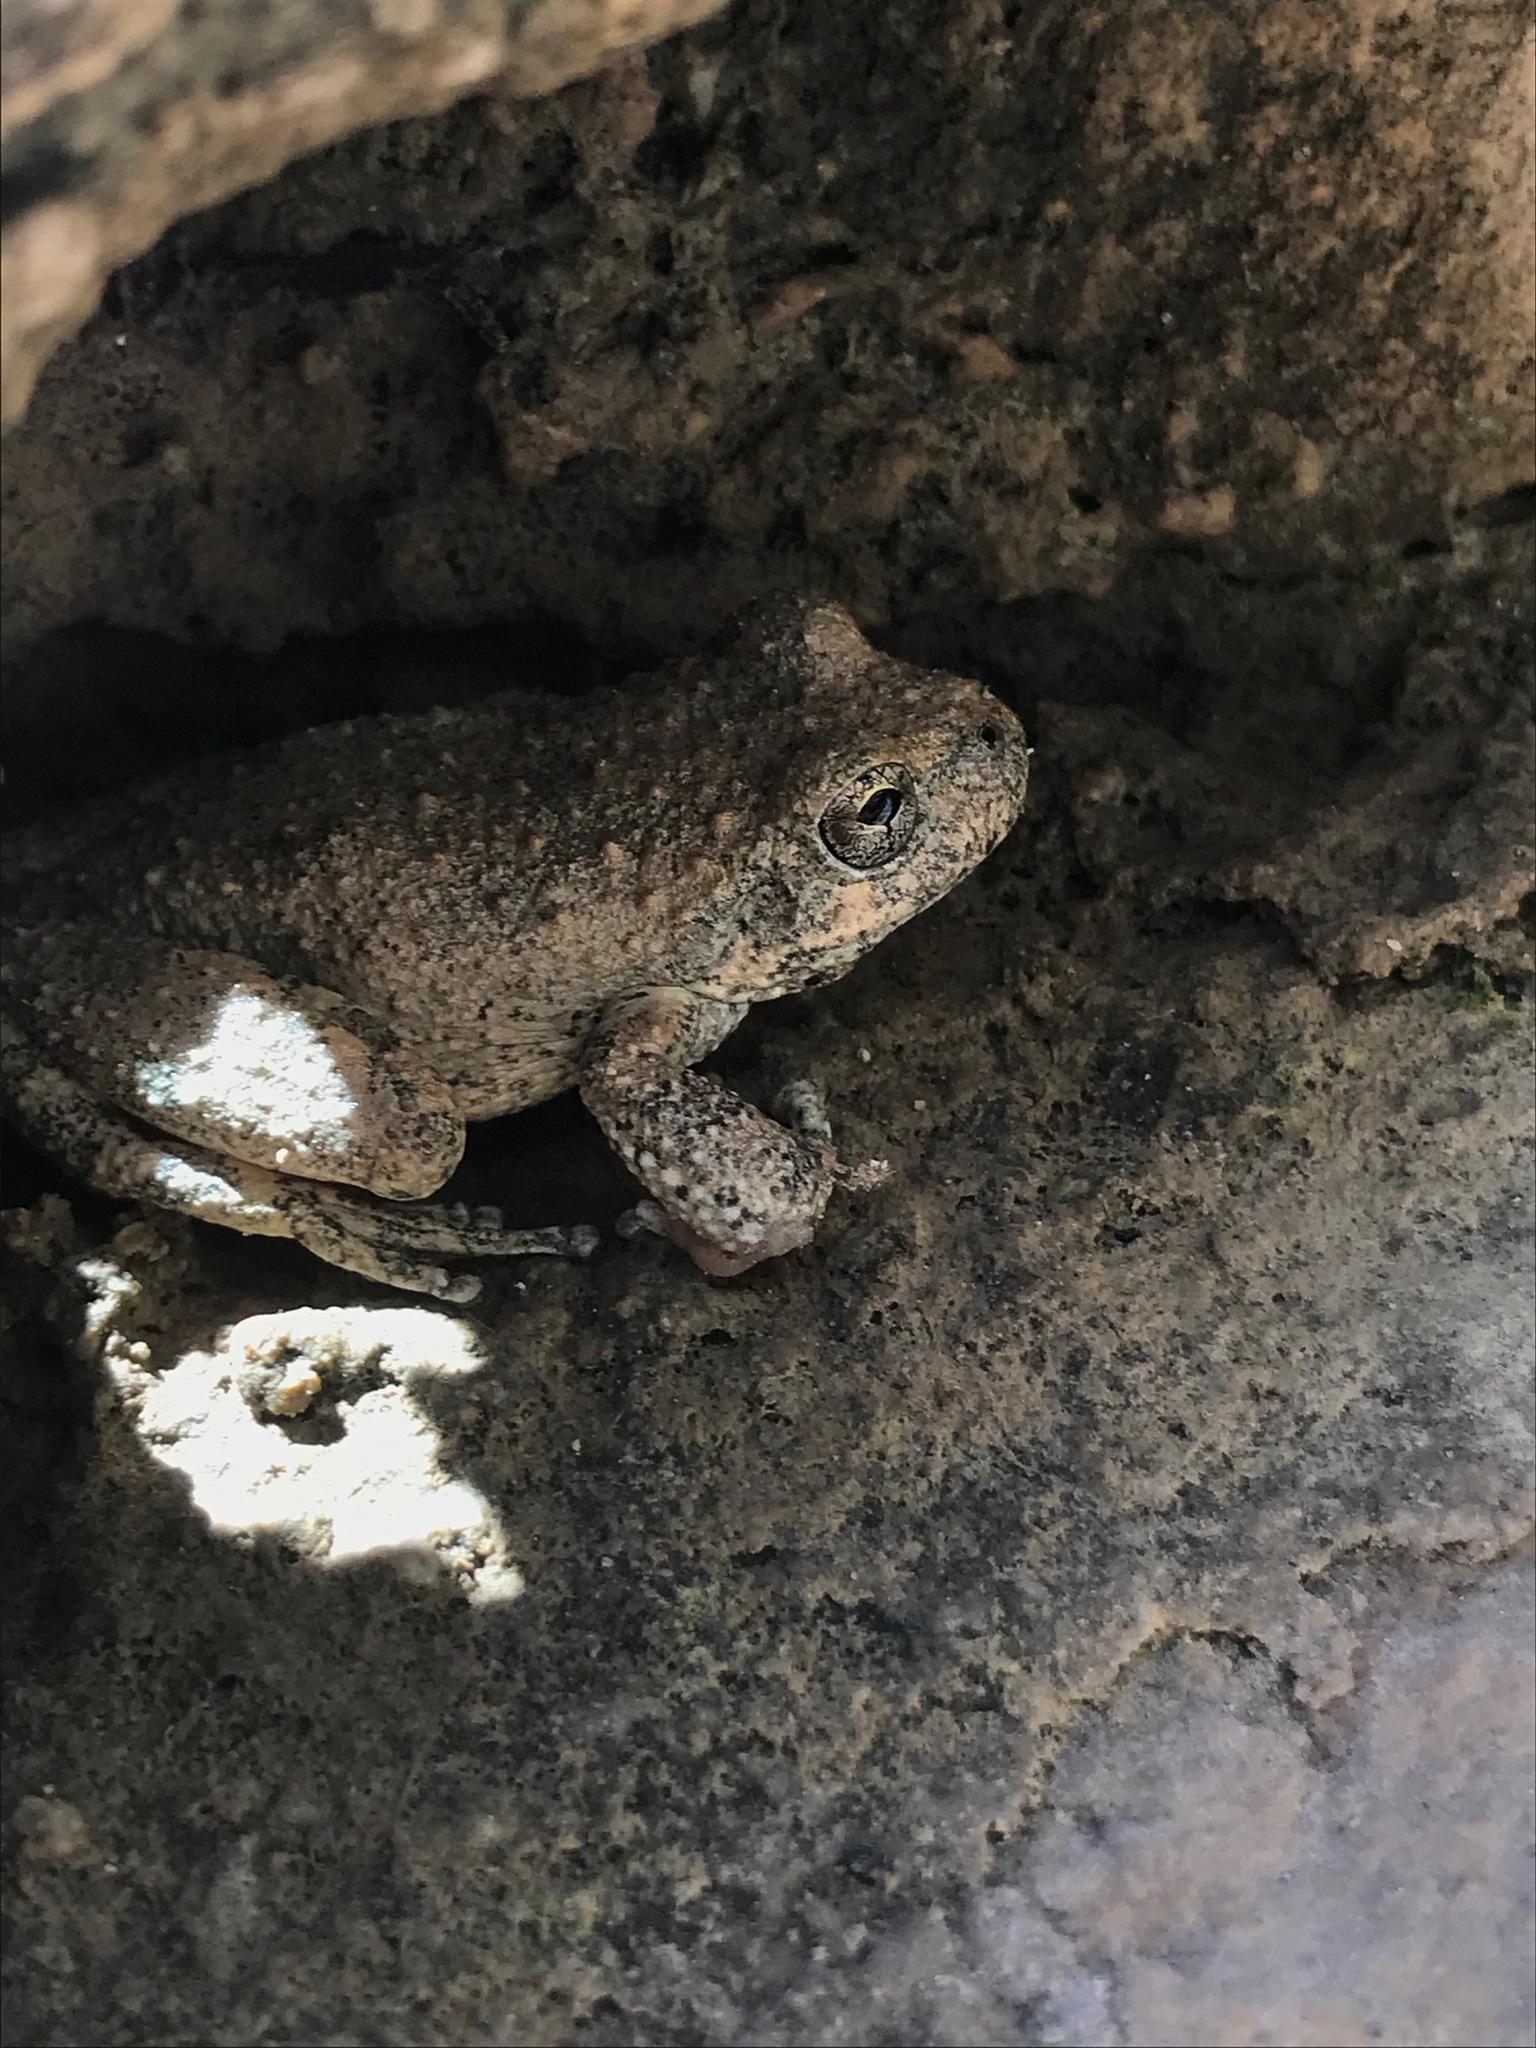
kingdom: Animalia
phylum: Chordata
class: Amphibia
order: Anura
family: Hylidae
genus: Pseudacris
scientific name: Pseudacris cadaverina
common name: California chorus frog
